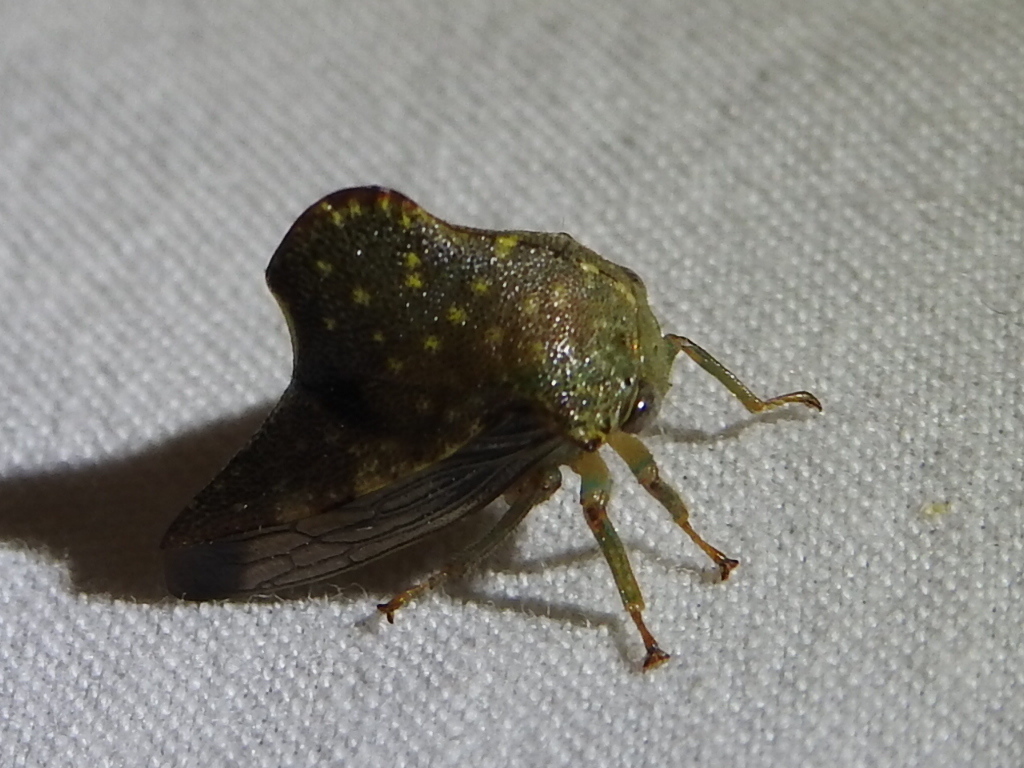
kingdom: Animalia
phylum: Arthropoda
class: Insecta
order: Hemiptera
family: Membracidae
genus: Telamona
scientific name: Telamona monticola
